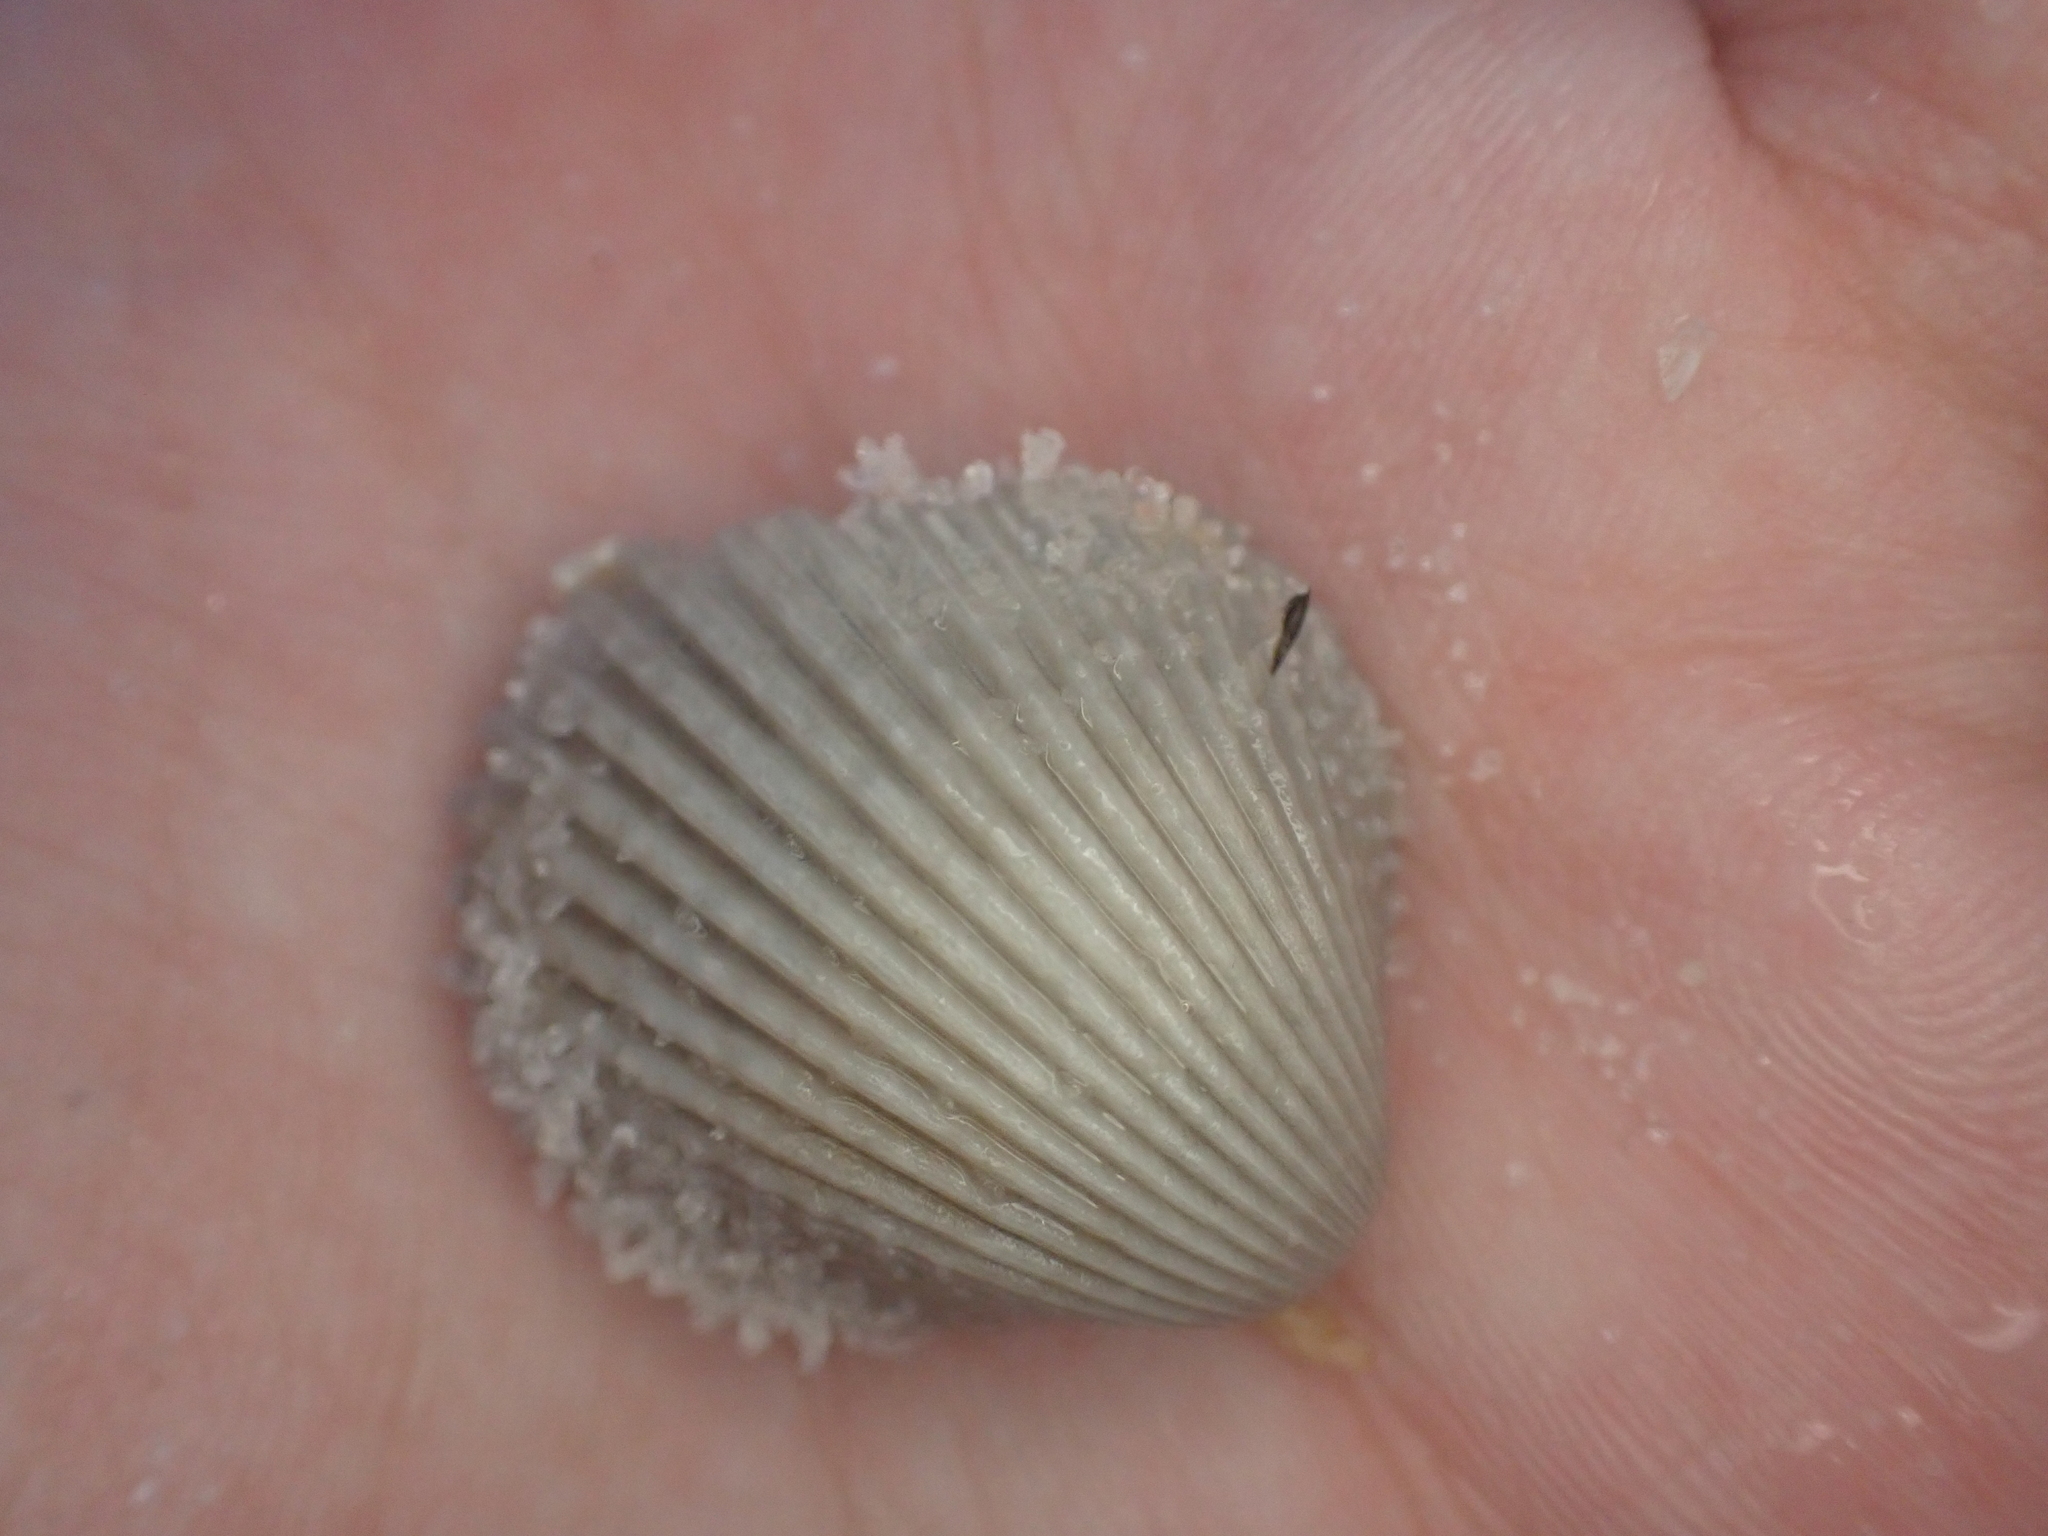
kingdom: Animalia
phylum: Mollusca
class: Bivalvia
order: Cardiida
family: Cardiidae
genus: Trachycardium
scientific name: Trachycardium egmontianum
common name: Florida pricklycockle
